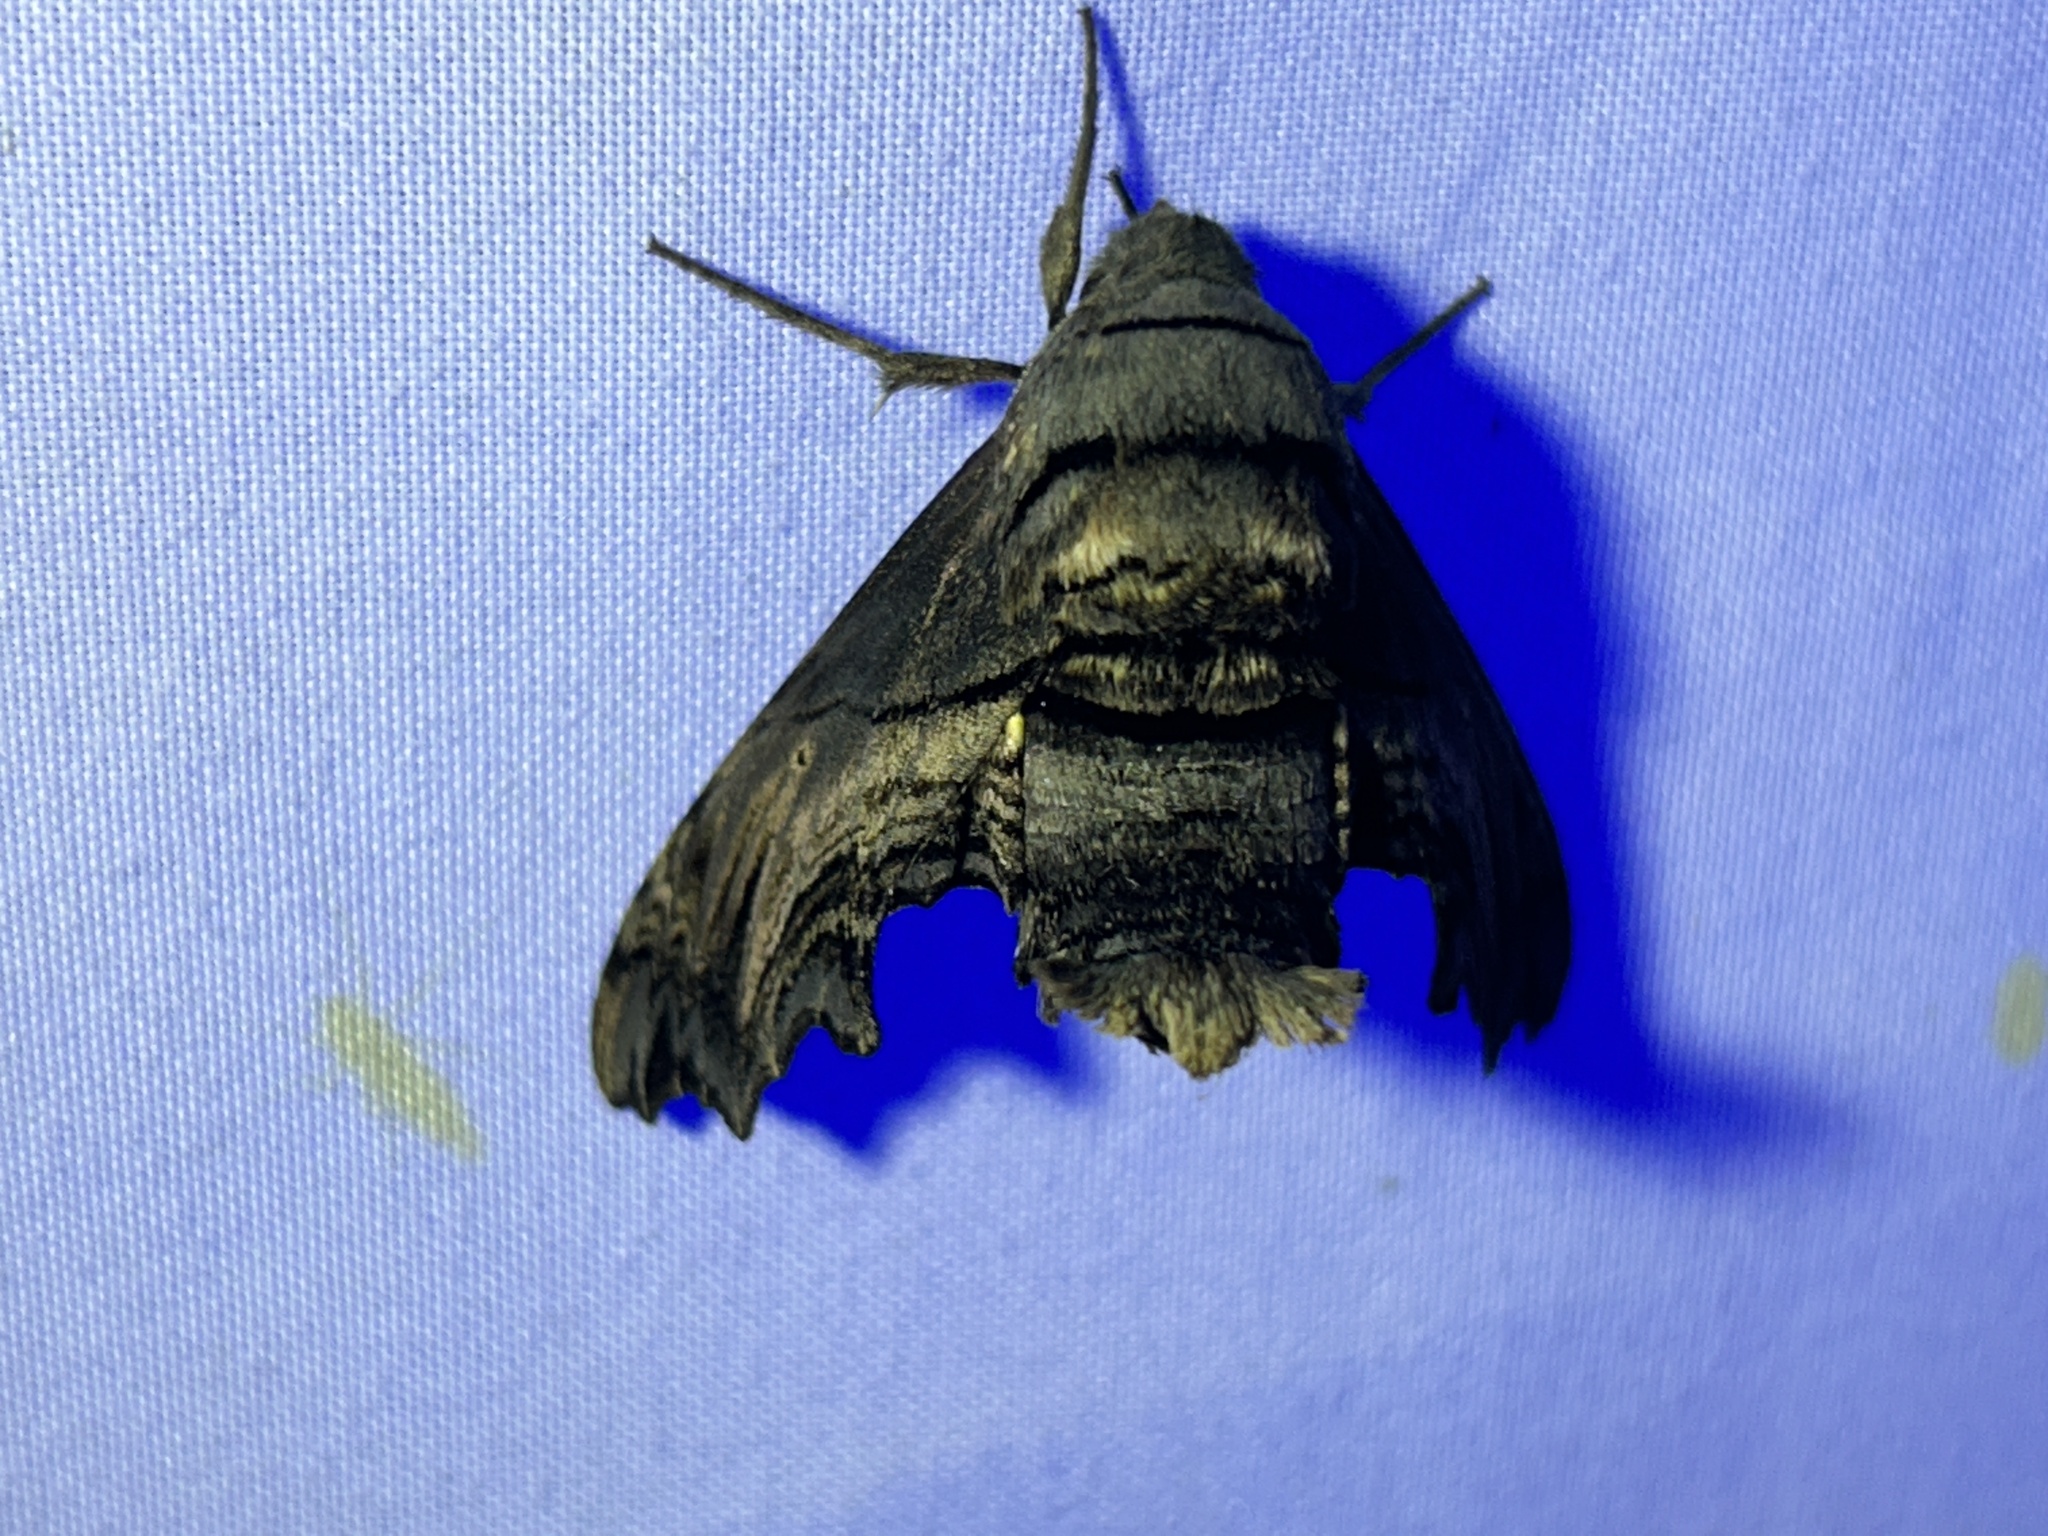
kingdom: Animalia
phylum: Arthropoda
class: Insecta
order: Lepidoptera
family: Sphingidae
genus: Sphecodina
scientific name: Sphecodina abbottii
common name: Abbott's sphinx
